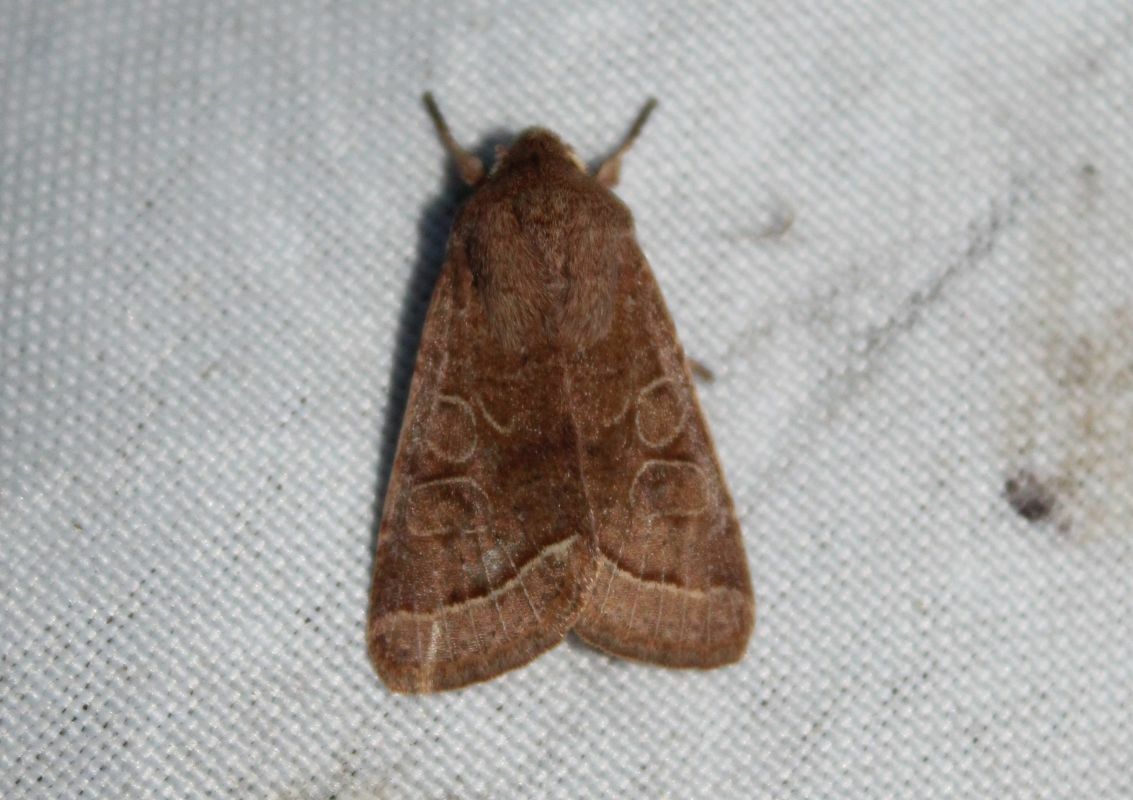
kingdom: Animalia
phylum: Arthropoda
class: Insecta
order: Lepidoptera
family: Noctuidae
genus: Orthosia
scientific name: Orthosia cerasi
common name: Common quaker
